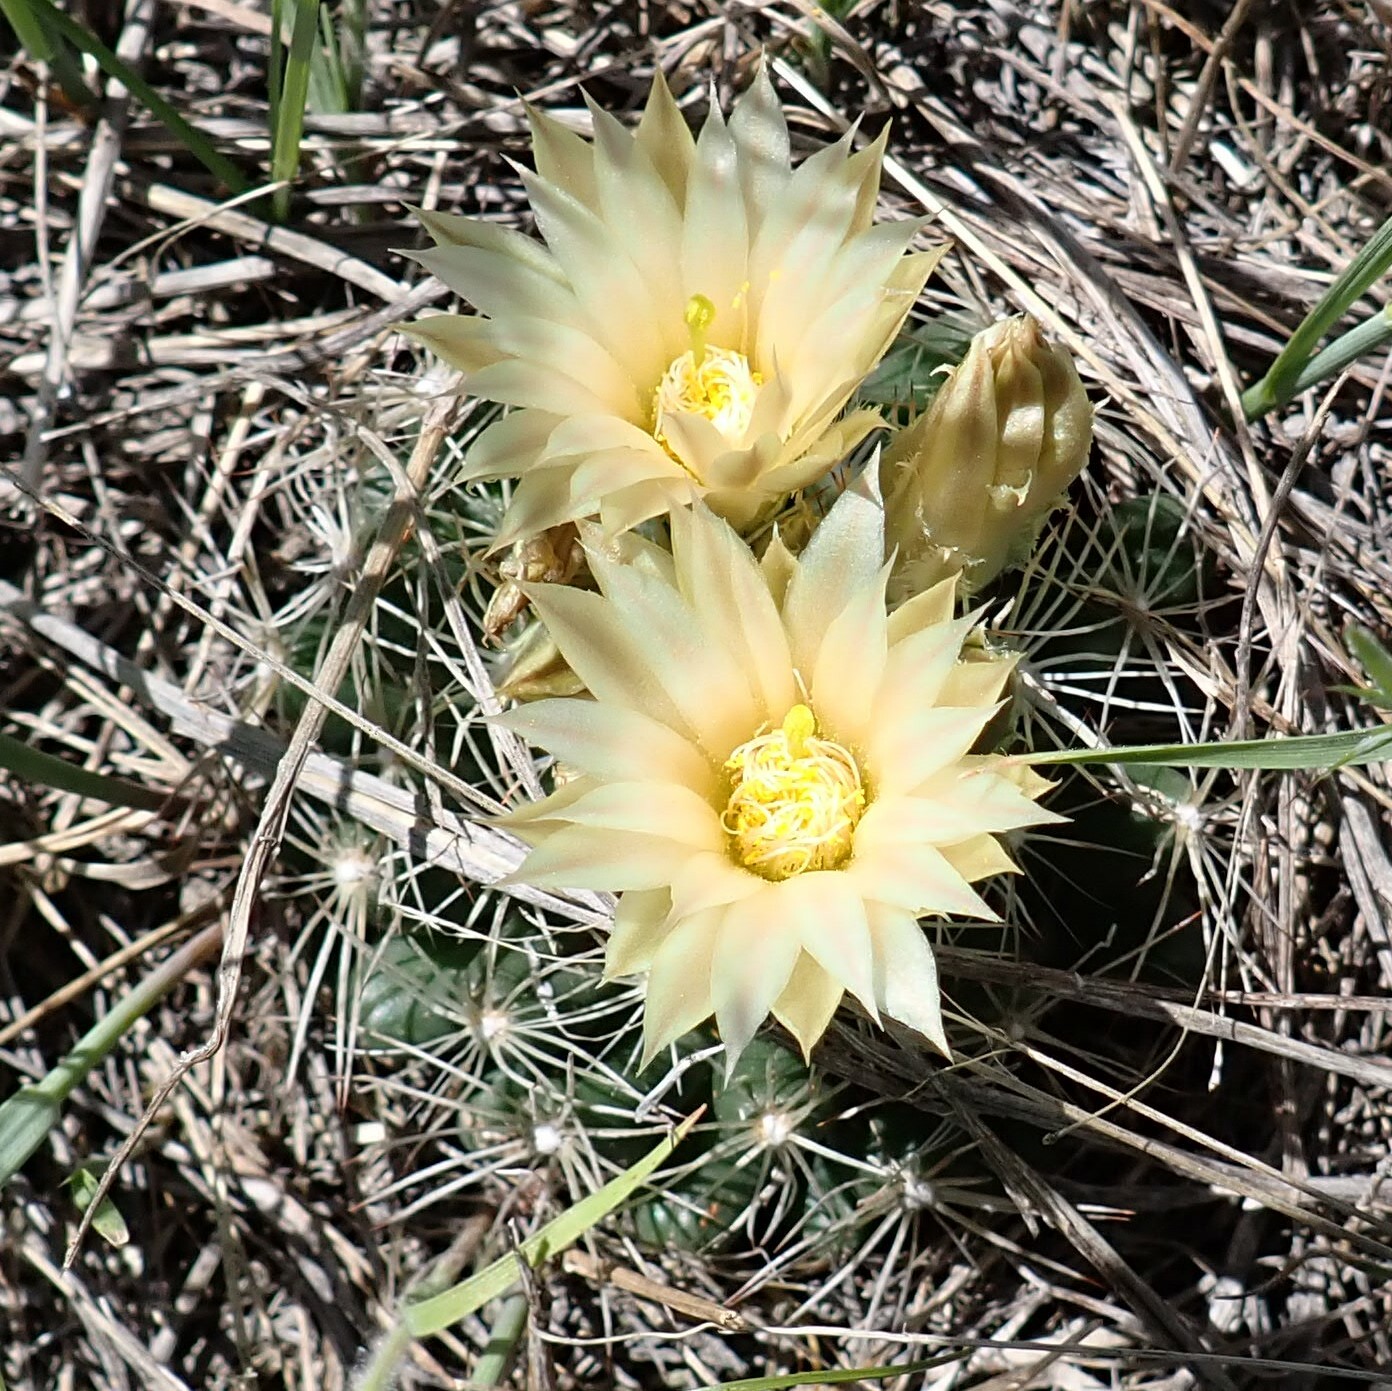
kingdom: Plantae
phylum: Tracheophyta
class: Magnoliopsida
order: Caryophyllales
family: Cactaceae
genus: Pelecyphora
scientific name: Pelecyphora missouriensis
